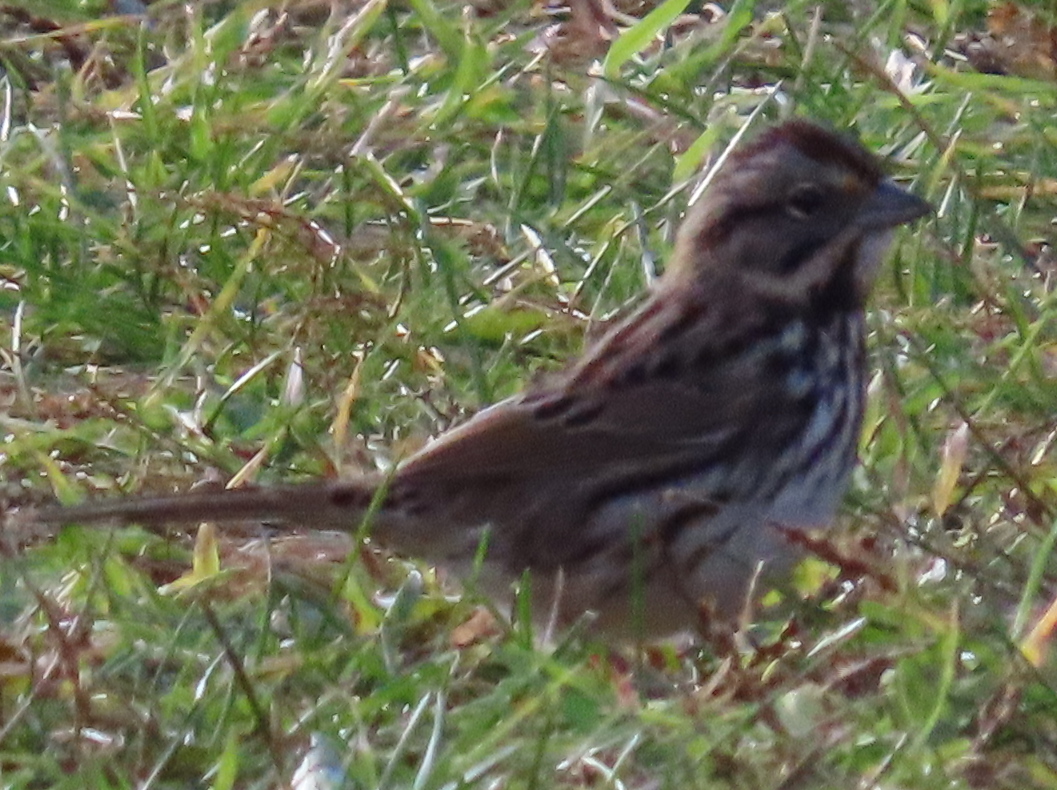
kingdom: Animalia
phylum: Chordata
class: Aves
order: Passeriformes
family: Passerellidae
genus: Melospiza
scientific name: Melospiza melodia
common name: Song sparrow
